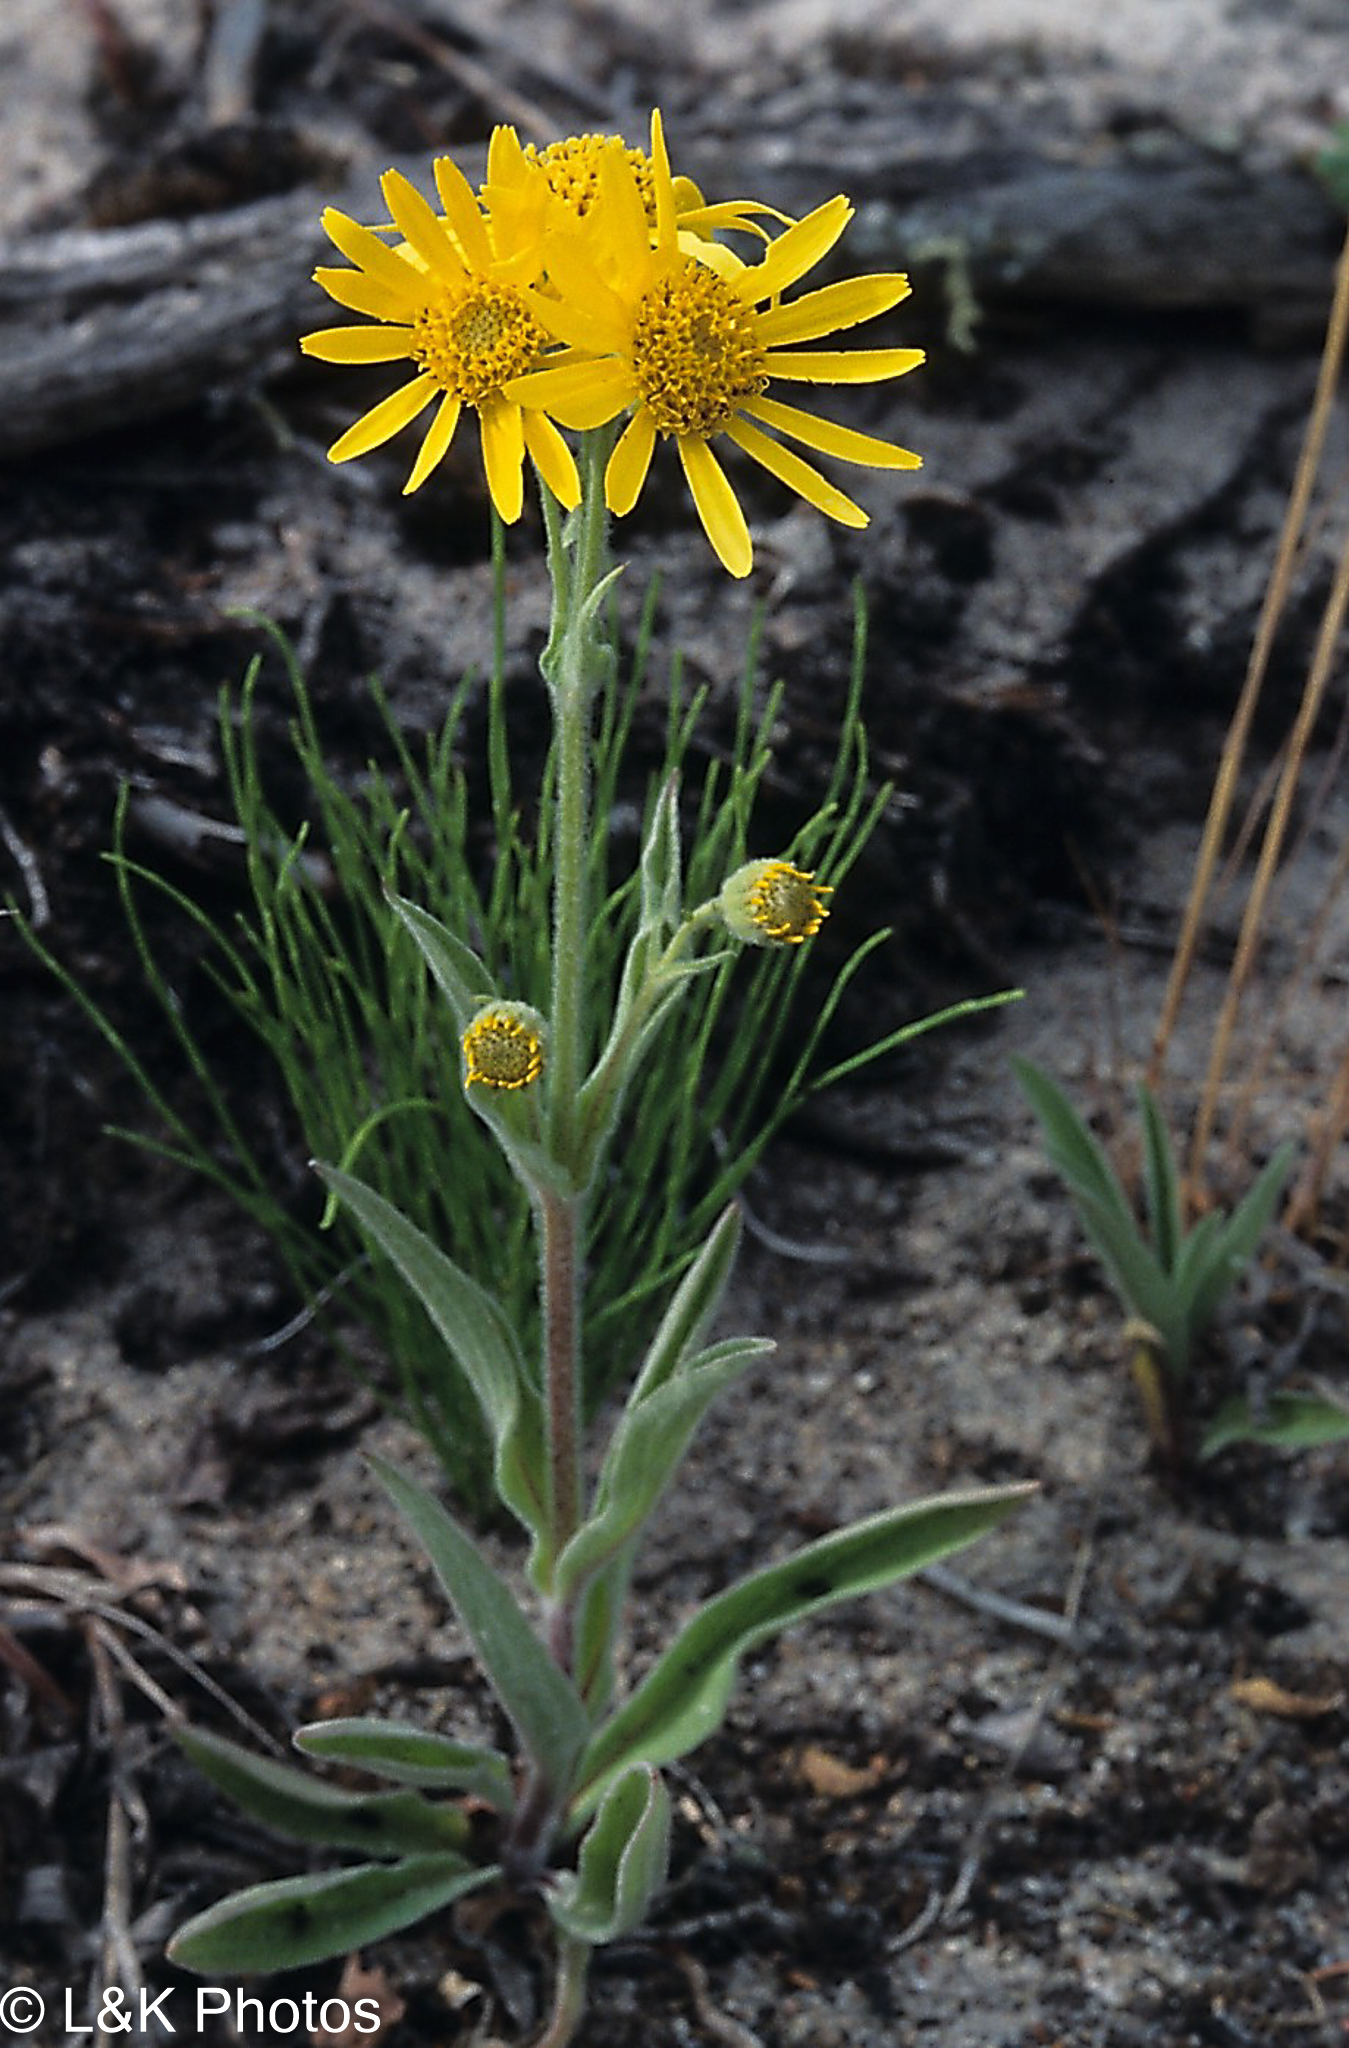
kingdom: Plantae
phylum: Tracheophyta
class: Magnoliopsida
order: Asterales
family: Asteraceae
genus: Arnica
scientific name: Arnica chamissonis
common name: Leafy arnica
